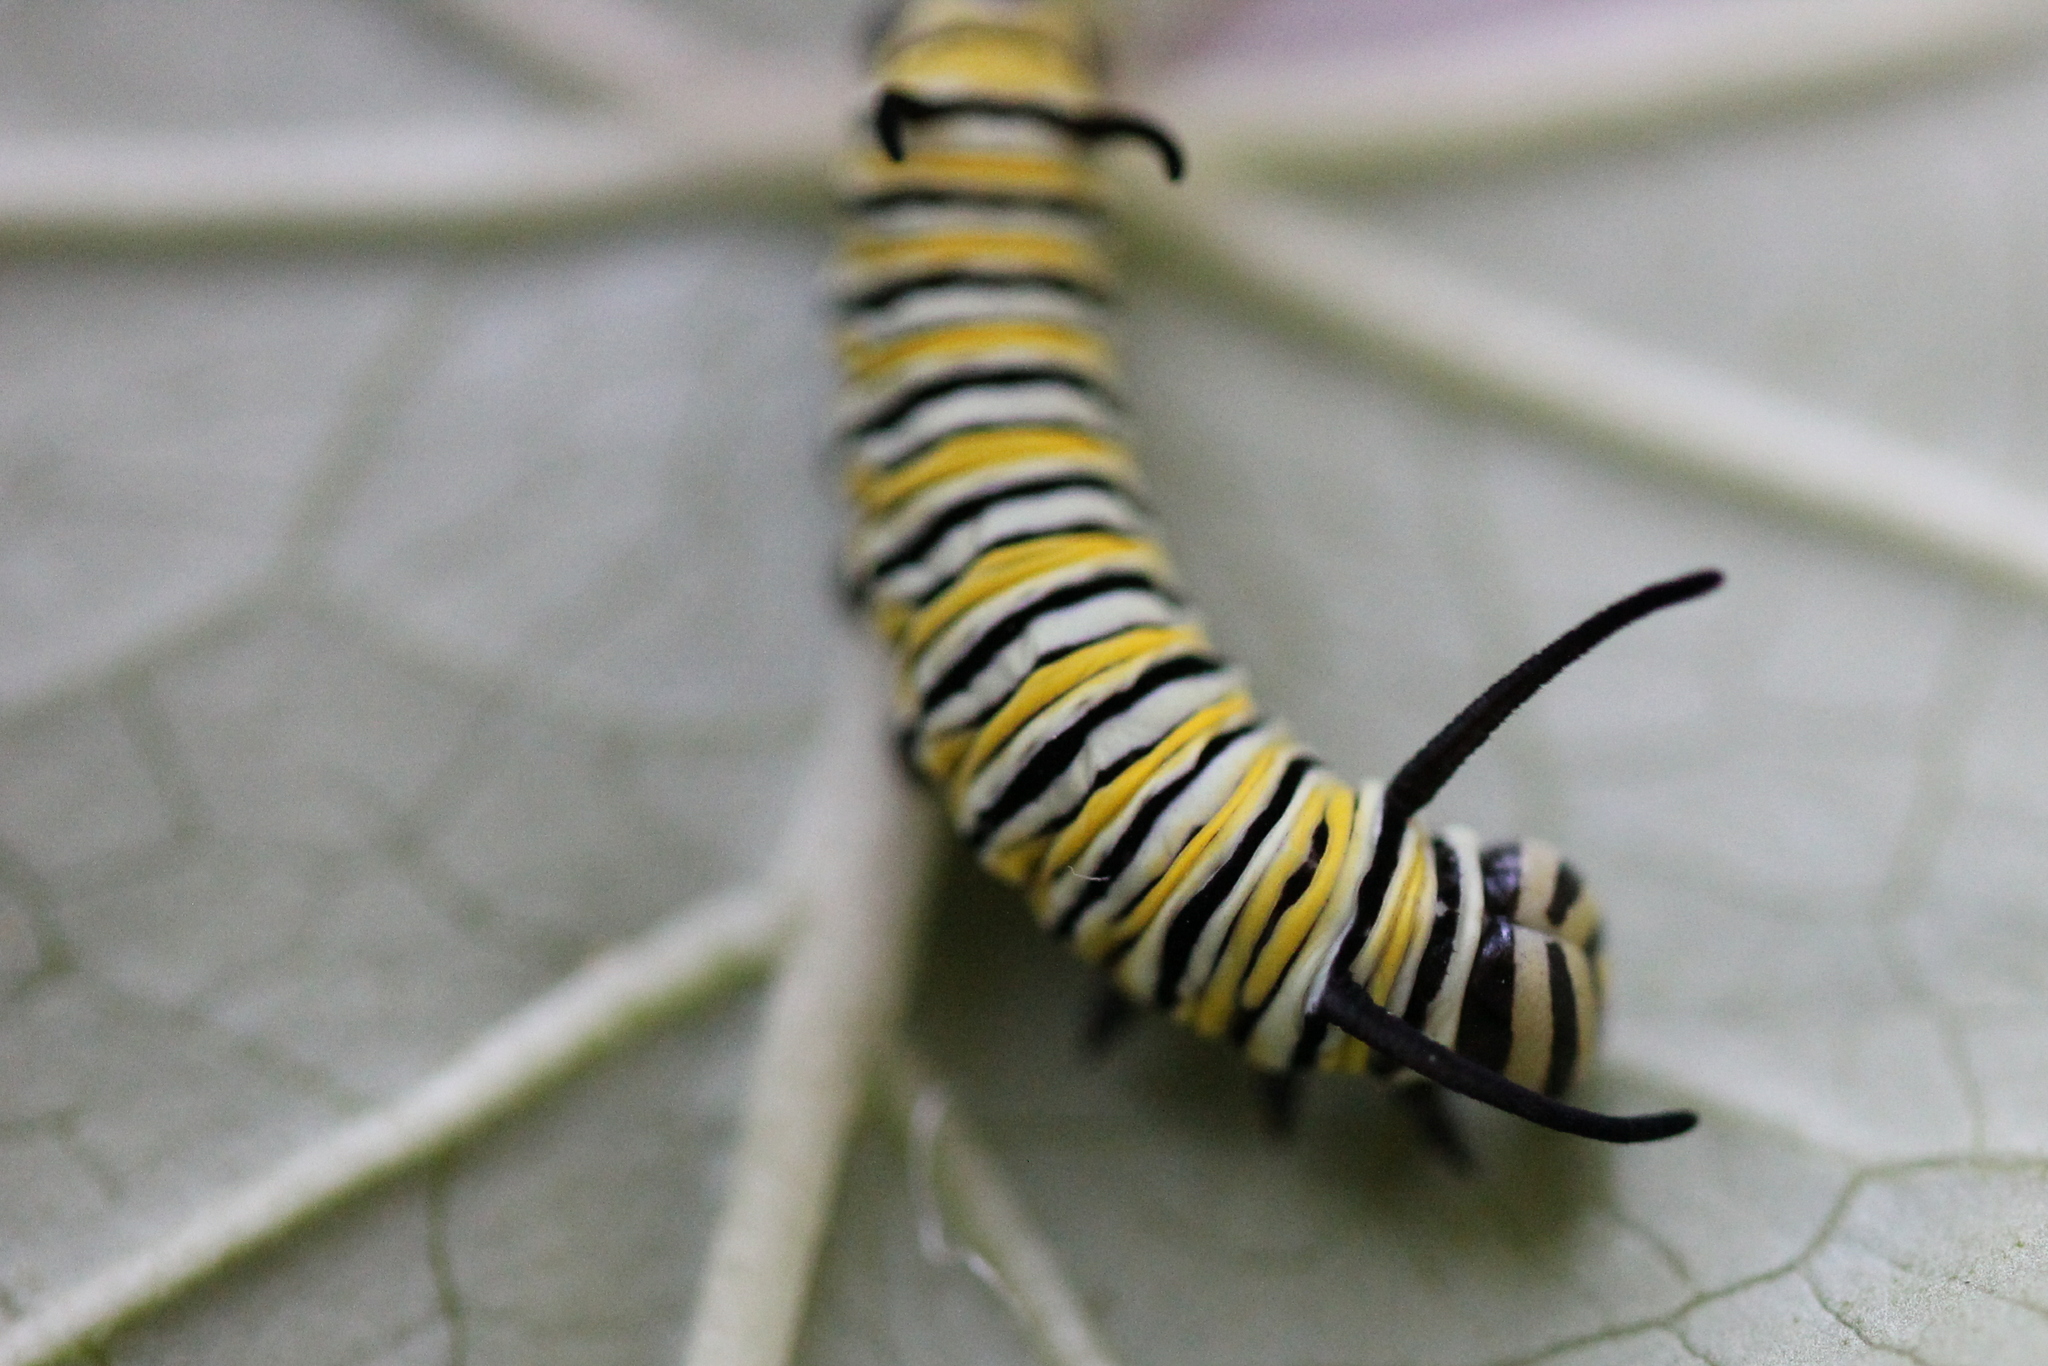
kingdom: Animalia
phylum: Arthropoda
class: Insecta
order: Lepidoptera
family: Nymphalidae
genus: Danaus
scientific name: Danaus plexippus
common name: Monarch
